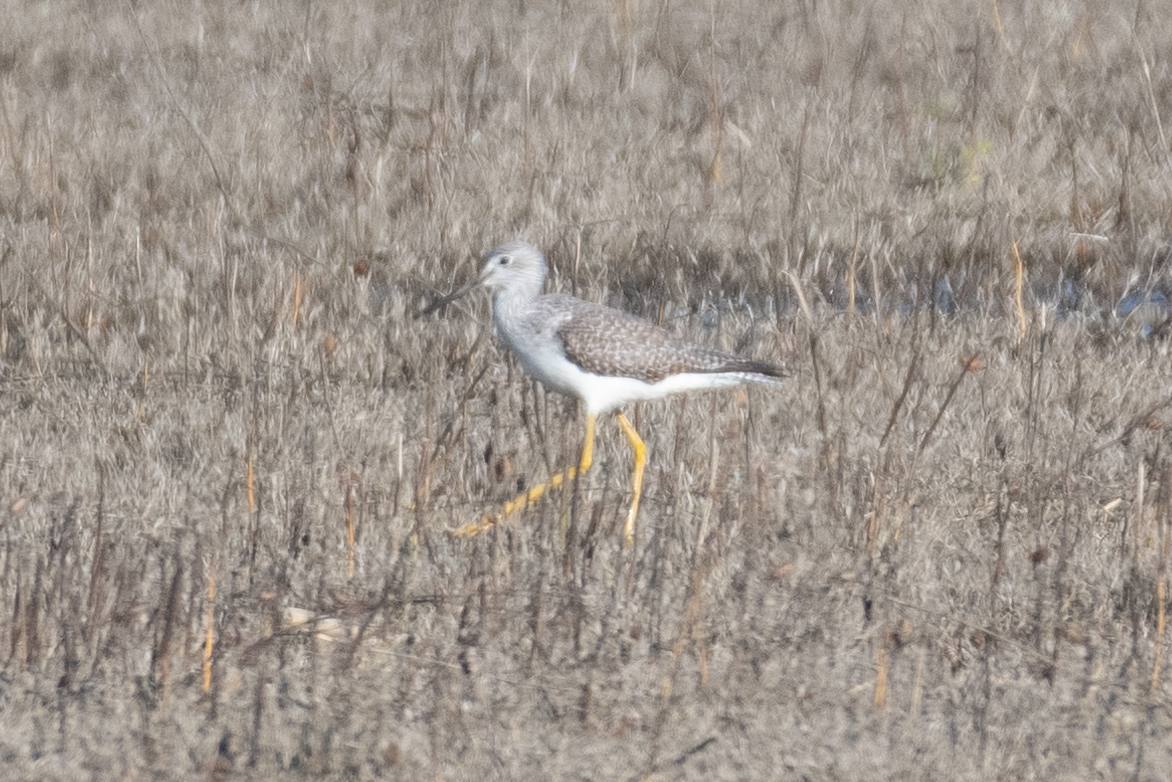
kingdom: Animalia
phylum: Chordata
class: Aves
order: Charadriiformes
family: Scolopacidae
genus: Tringa
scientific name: Tringa melanoleuca
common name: Greater yellowlegs
